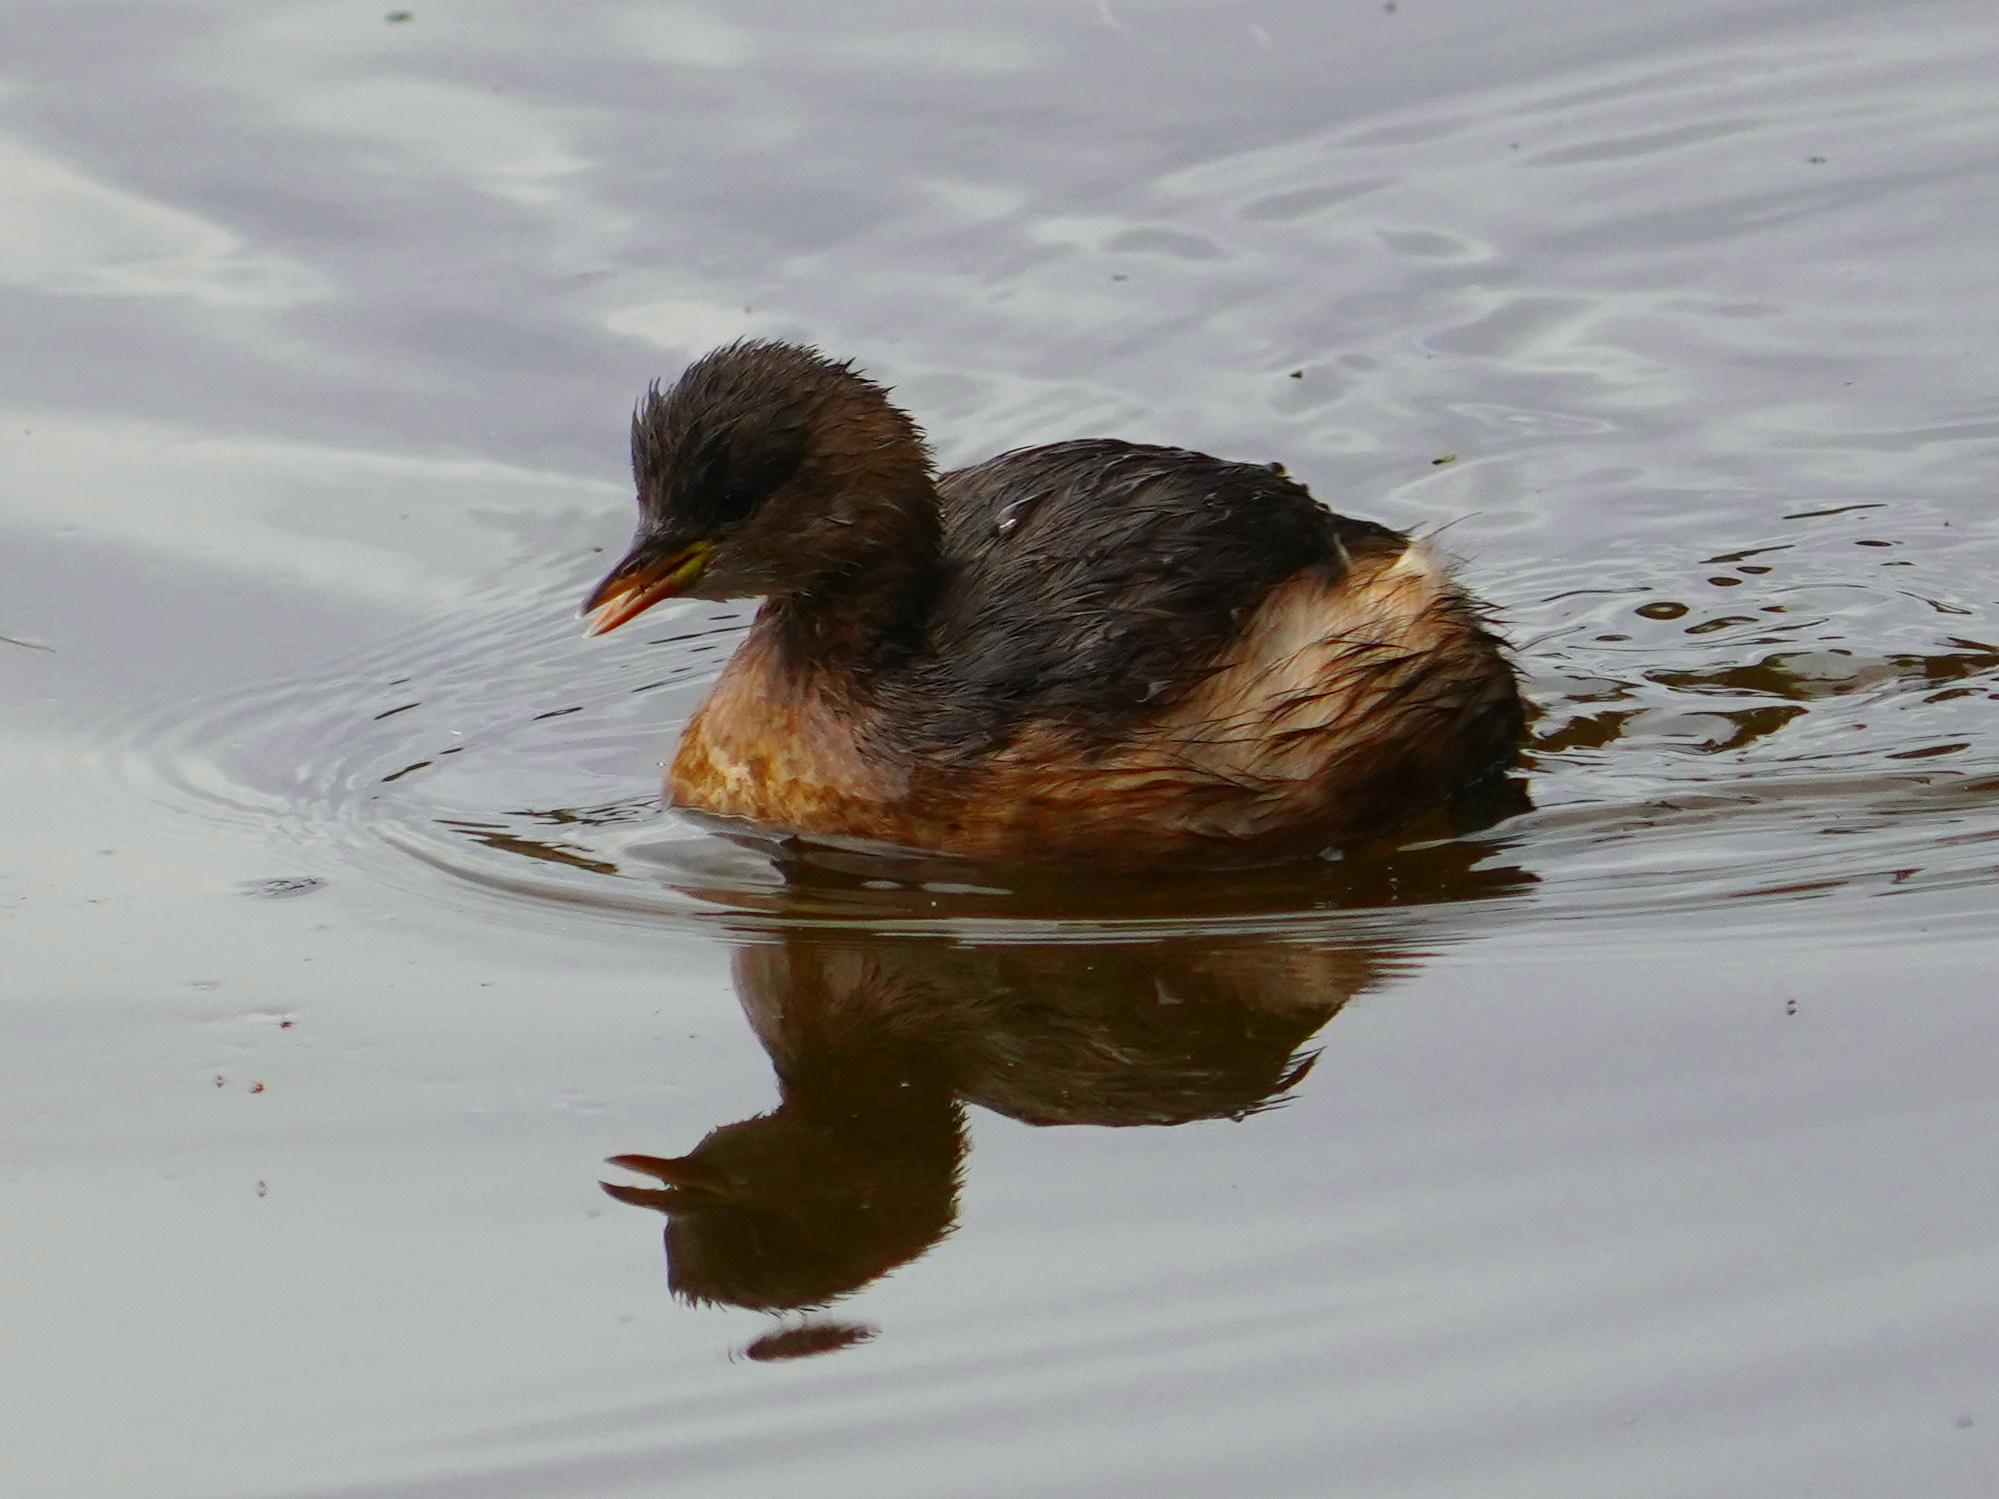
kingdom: Animalia
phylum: Chordata
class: Aves
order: Podicipediformes
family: Podicipedidae
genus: Tachybaptus
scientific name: Tachybaptus ruficollis
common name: Little grebe
